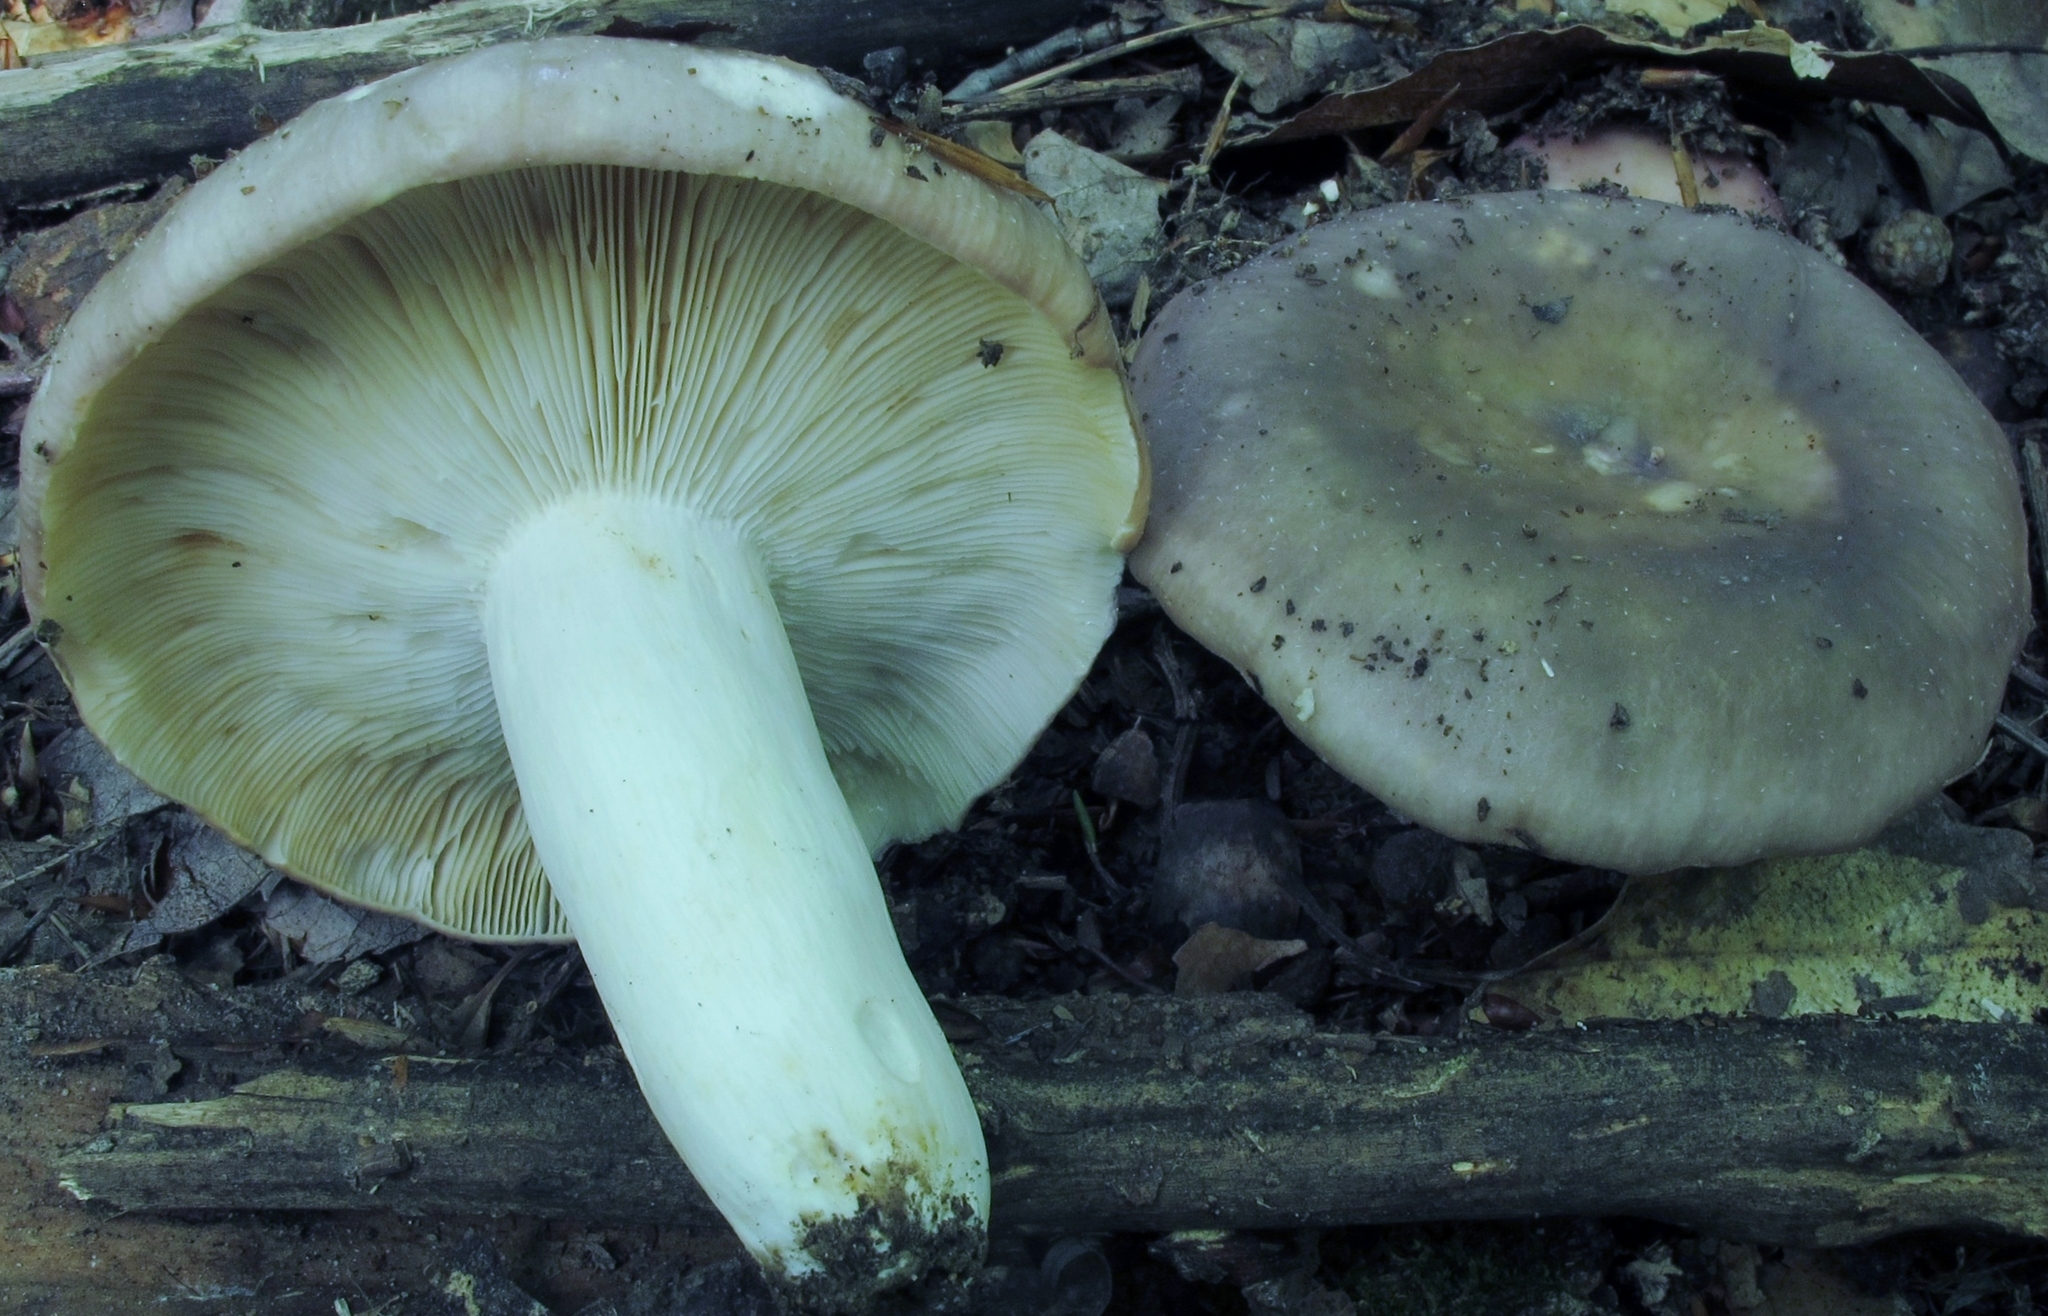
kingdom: Fungi
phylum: Basidiomycota
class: Agaricomycetes
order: Russulales
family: Russulaceae
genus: Russula
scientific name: Russula cyanoxantha
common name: Charcoal burner
